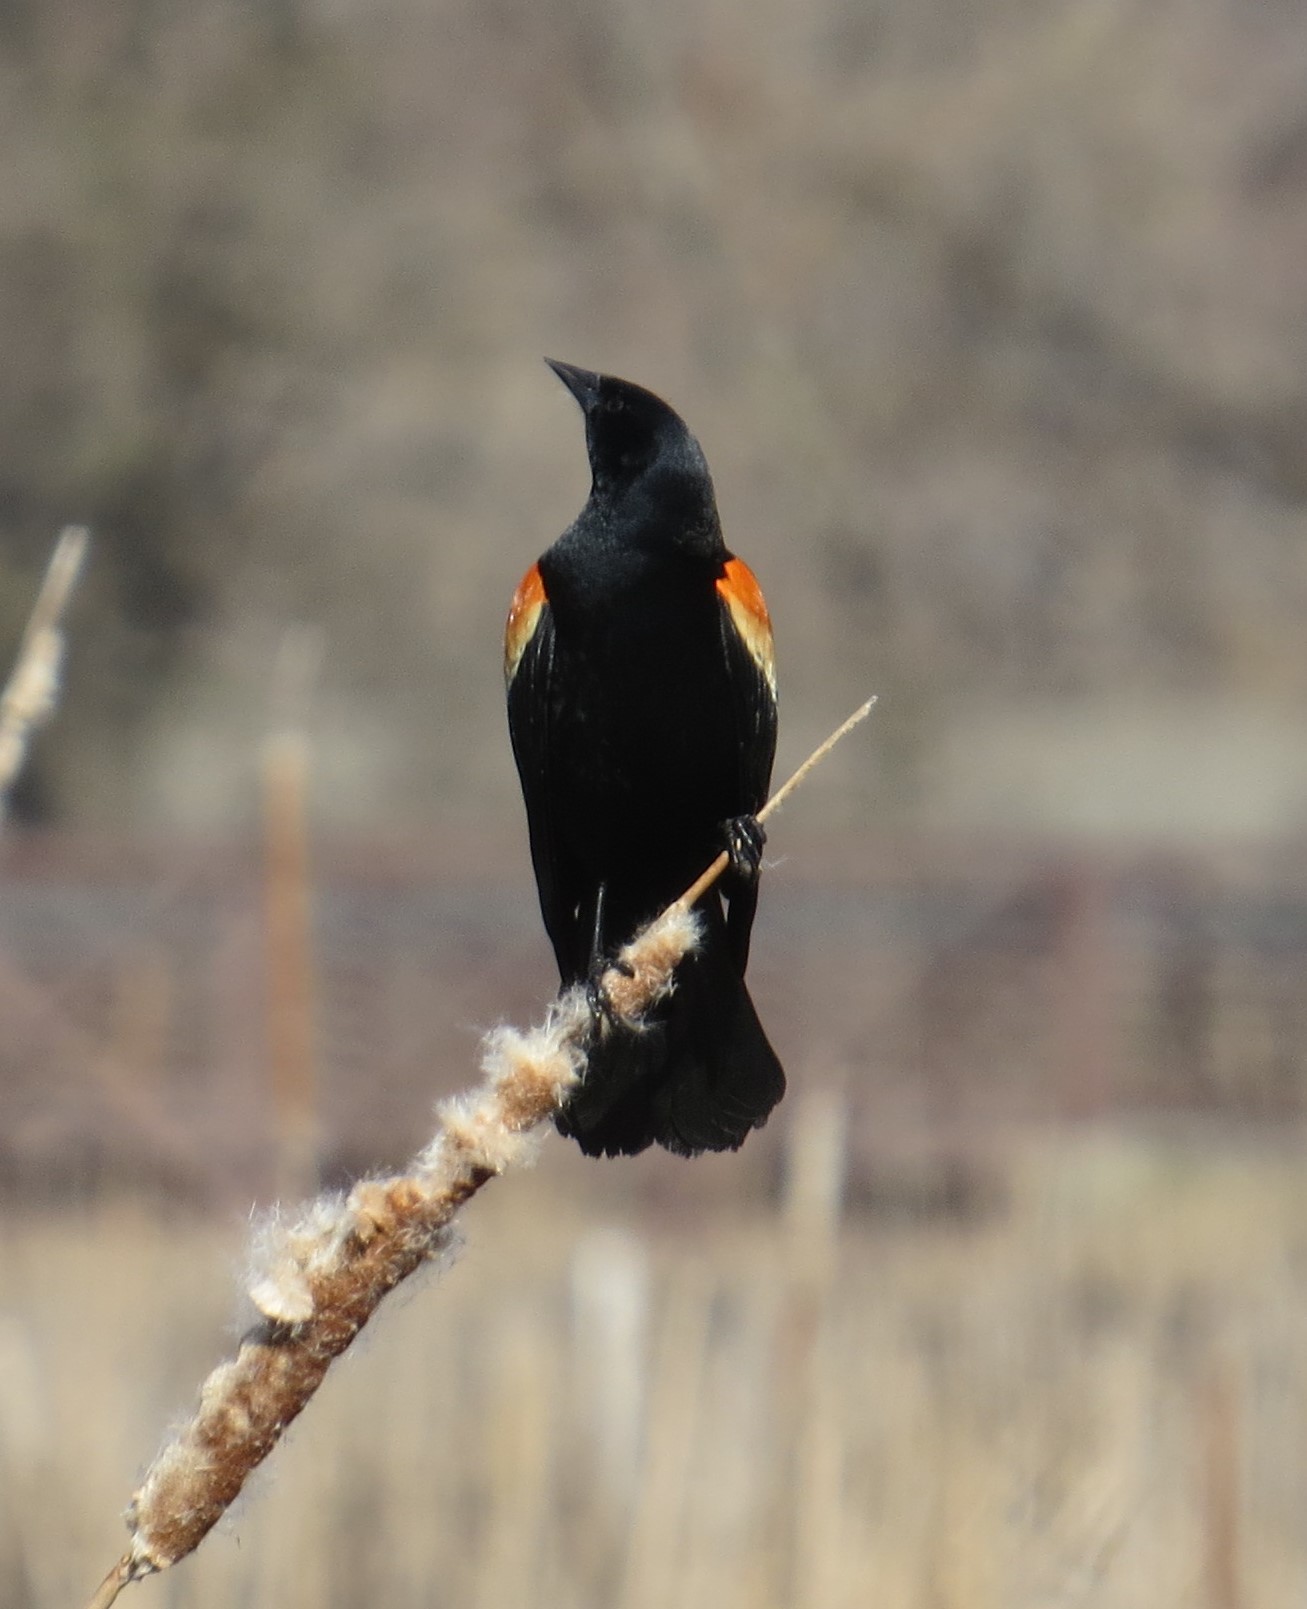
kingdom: Animalia
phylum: Chordata
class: Aves
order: Passeriformes
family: Icteridae
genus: Agelaius
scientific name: Agelaius phoeniceus
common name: Red-winged blackbird
